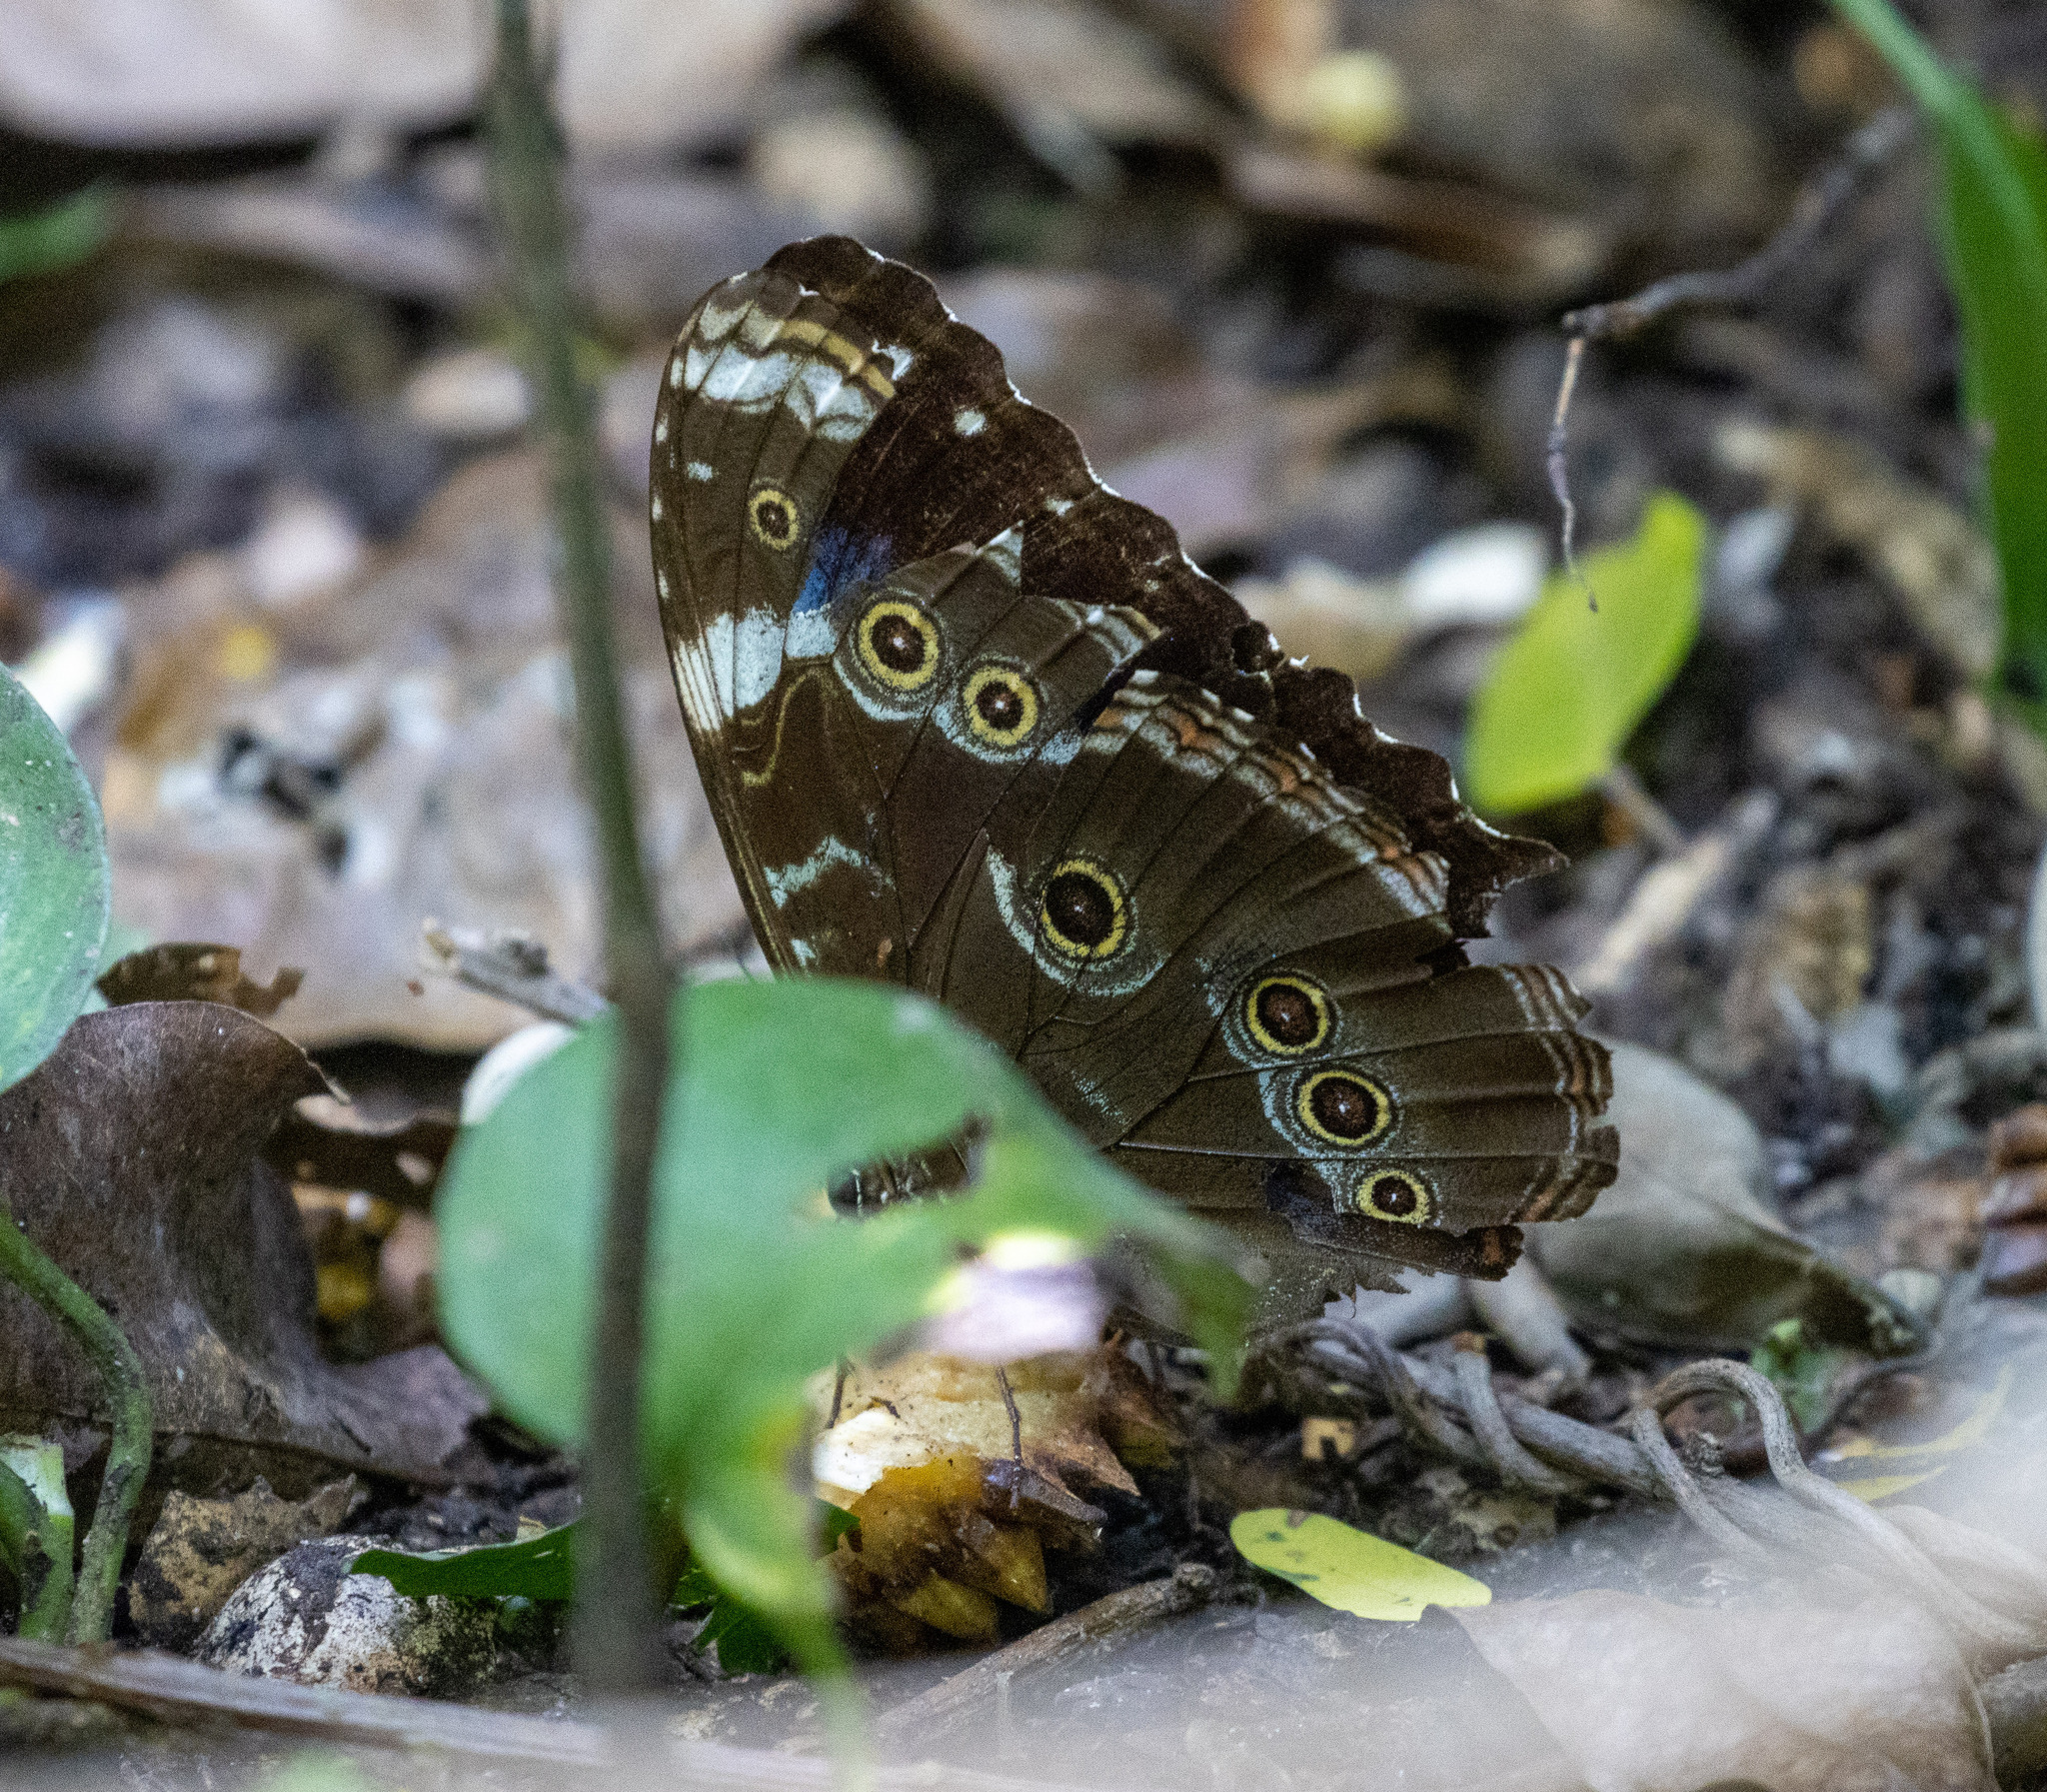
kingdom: Animalia
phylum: Arthropoda
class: Insecta
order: Lepidoptera
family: Nymphalidae
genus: Morpho
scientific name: Morpho helenor
